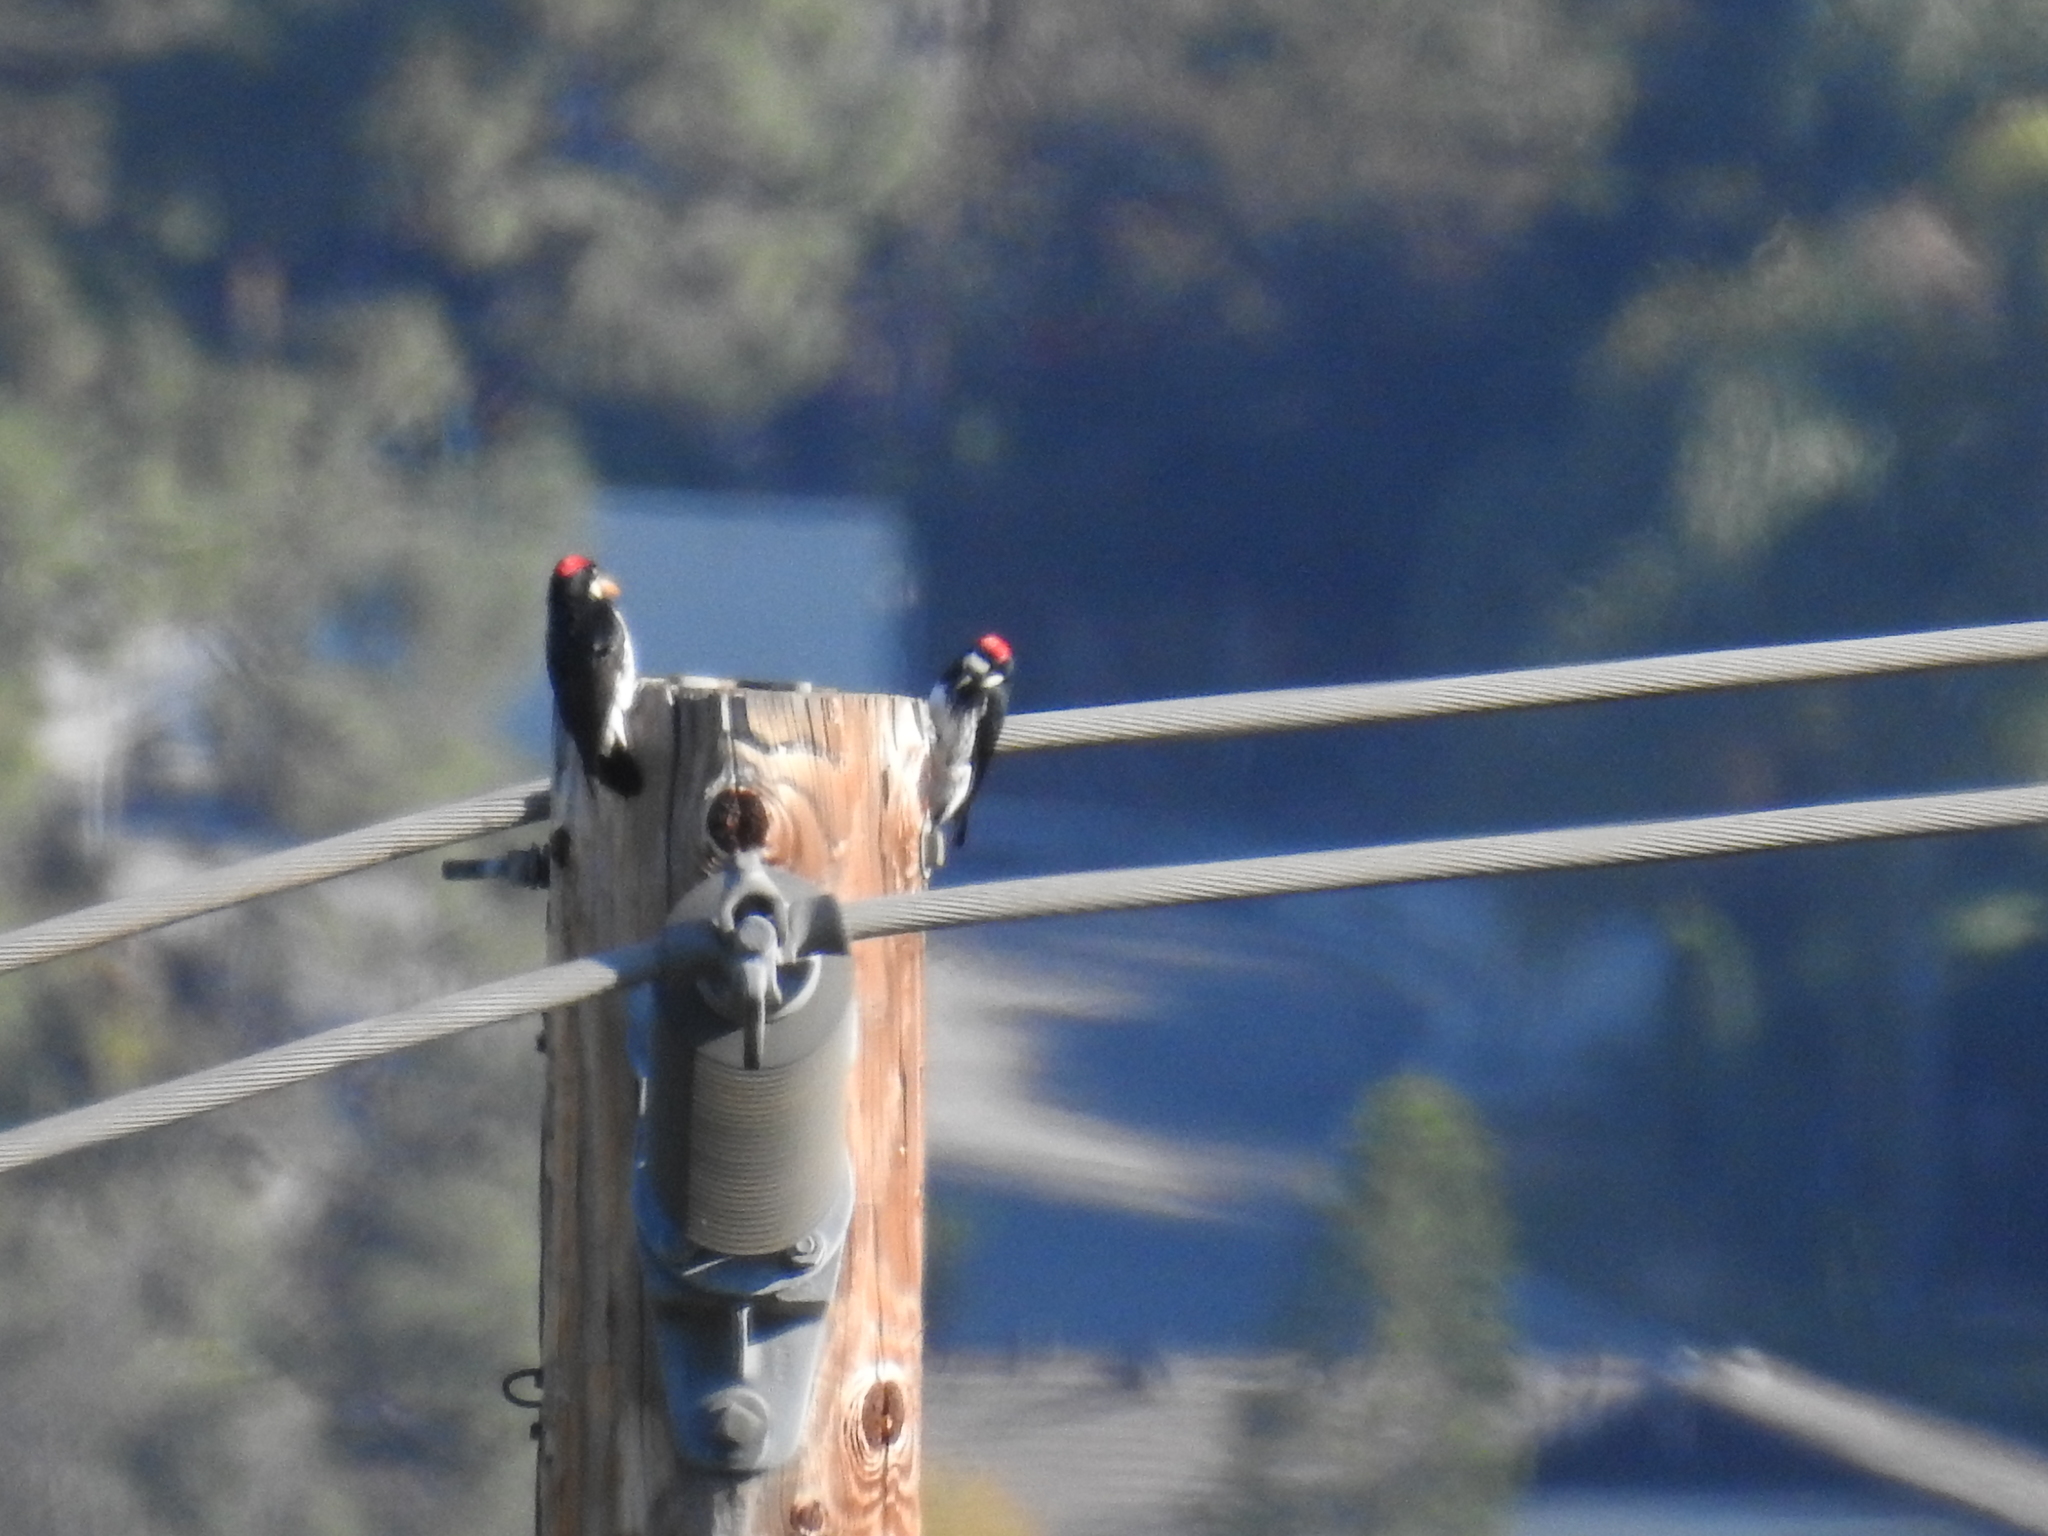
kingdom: Animalia
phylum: Chordata
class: Aves
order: Piciformes
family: Picidae
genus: Melanerpes
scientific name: Melanerpes formicivorus
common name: Acorn woodpecker
